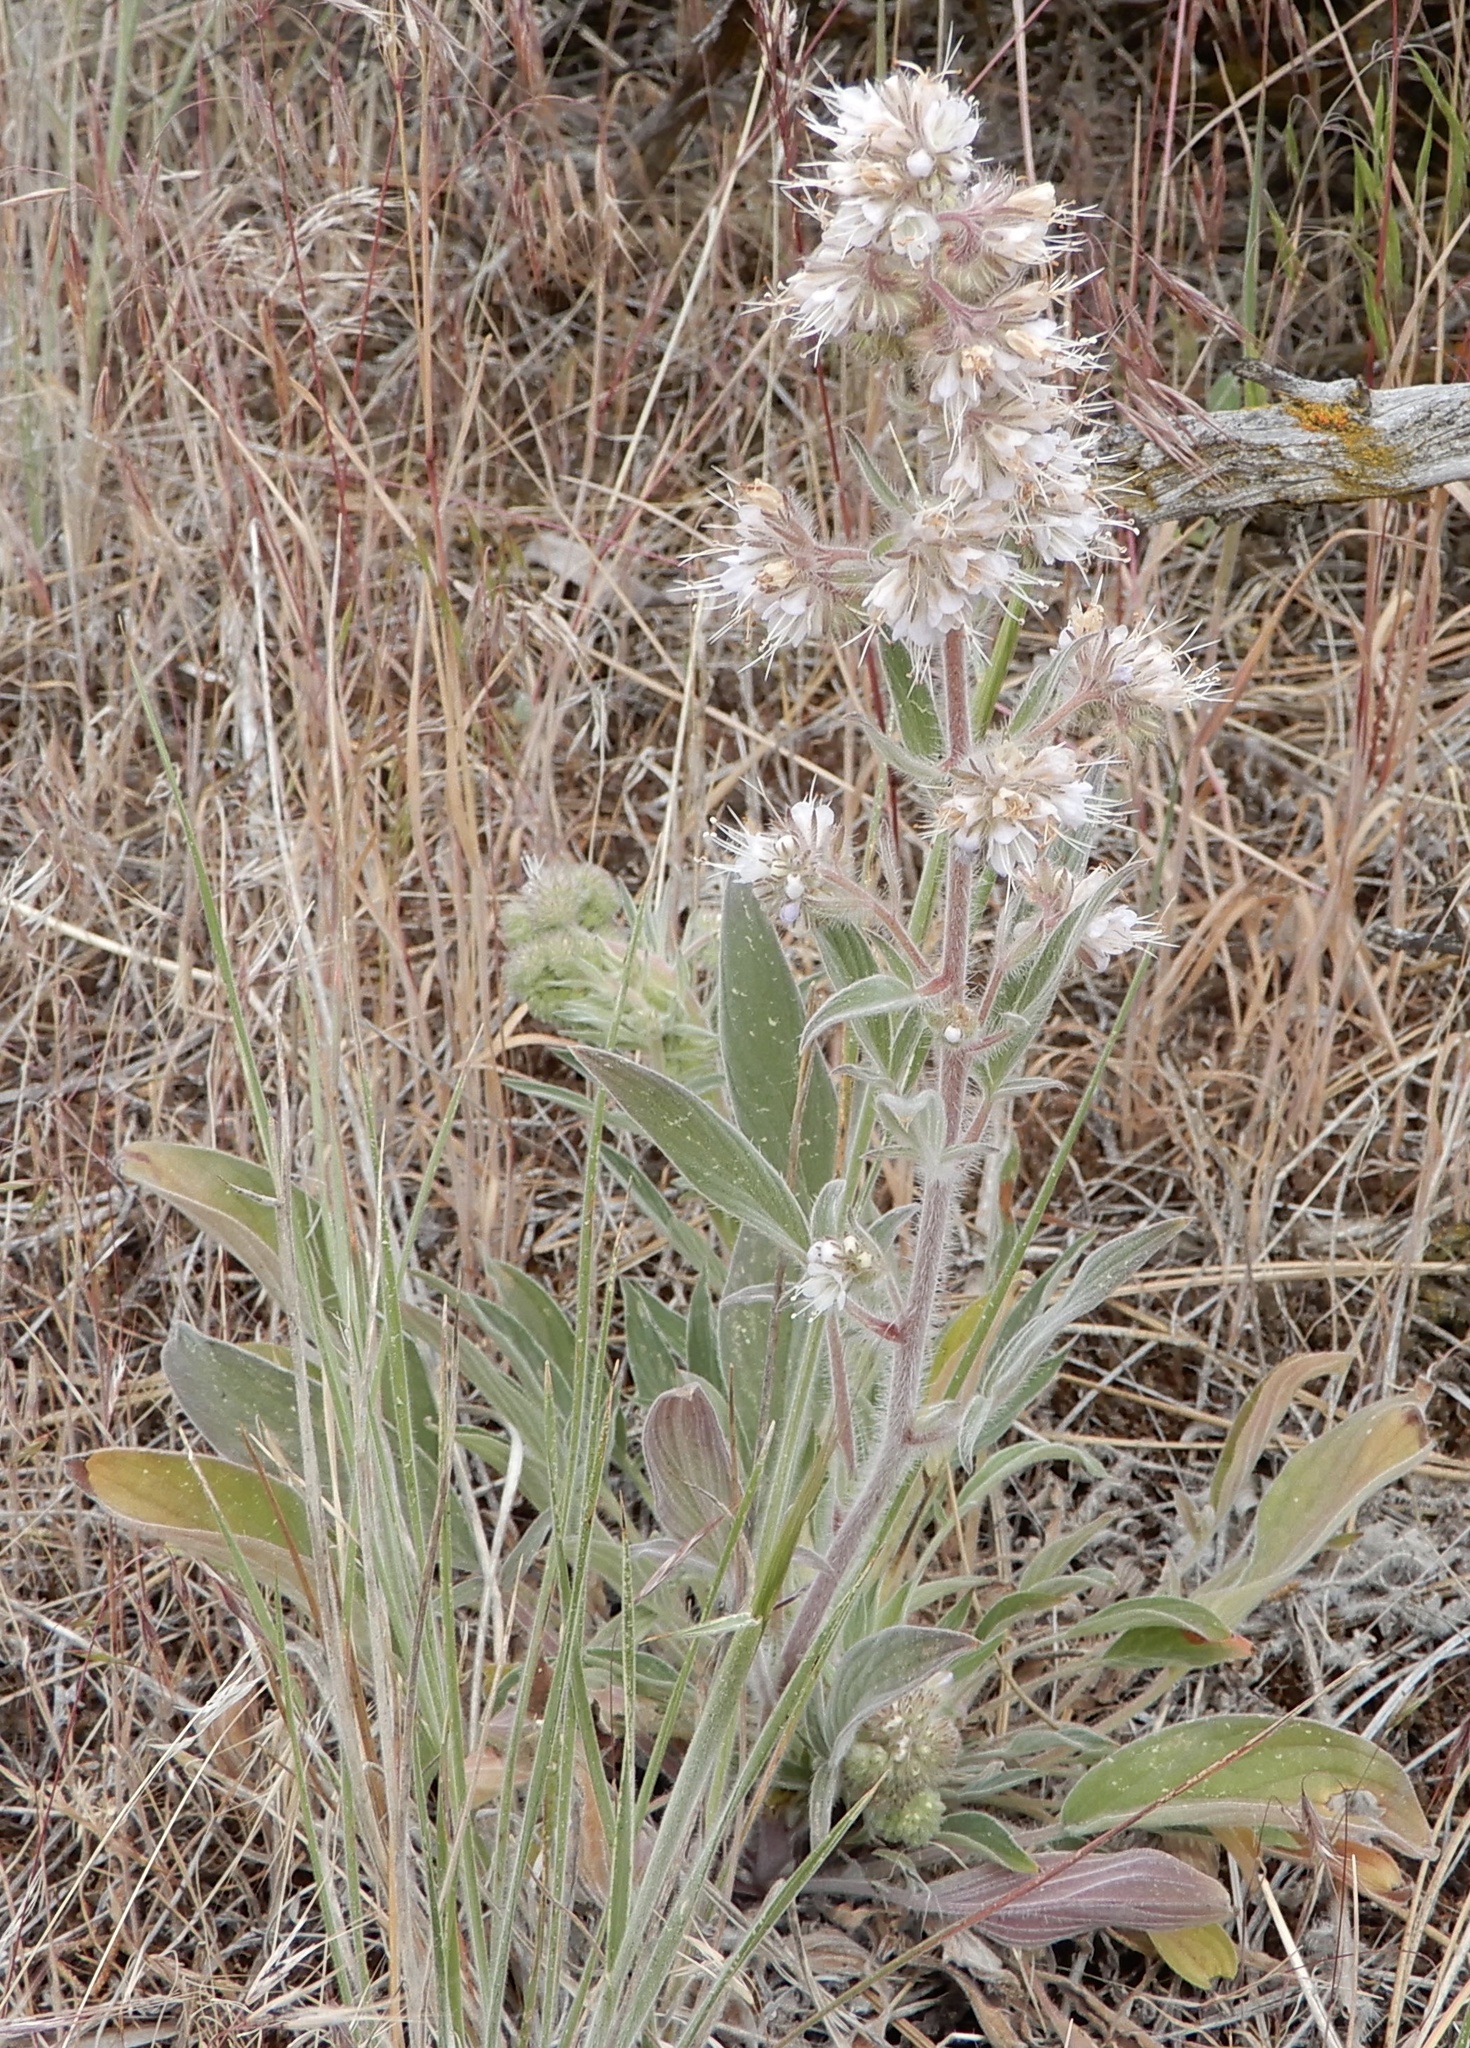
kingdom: Plantae
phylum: Tracheophyta
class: Magnoliopsida
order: Boraginales
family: Hydrophyllaceae
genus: Phacelia
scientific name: Phacelia hastata
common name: Silver-leaved phacelia
